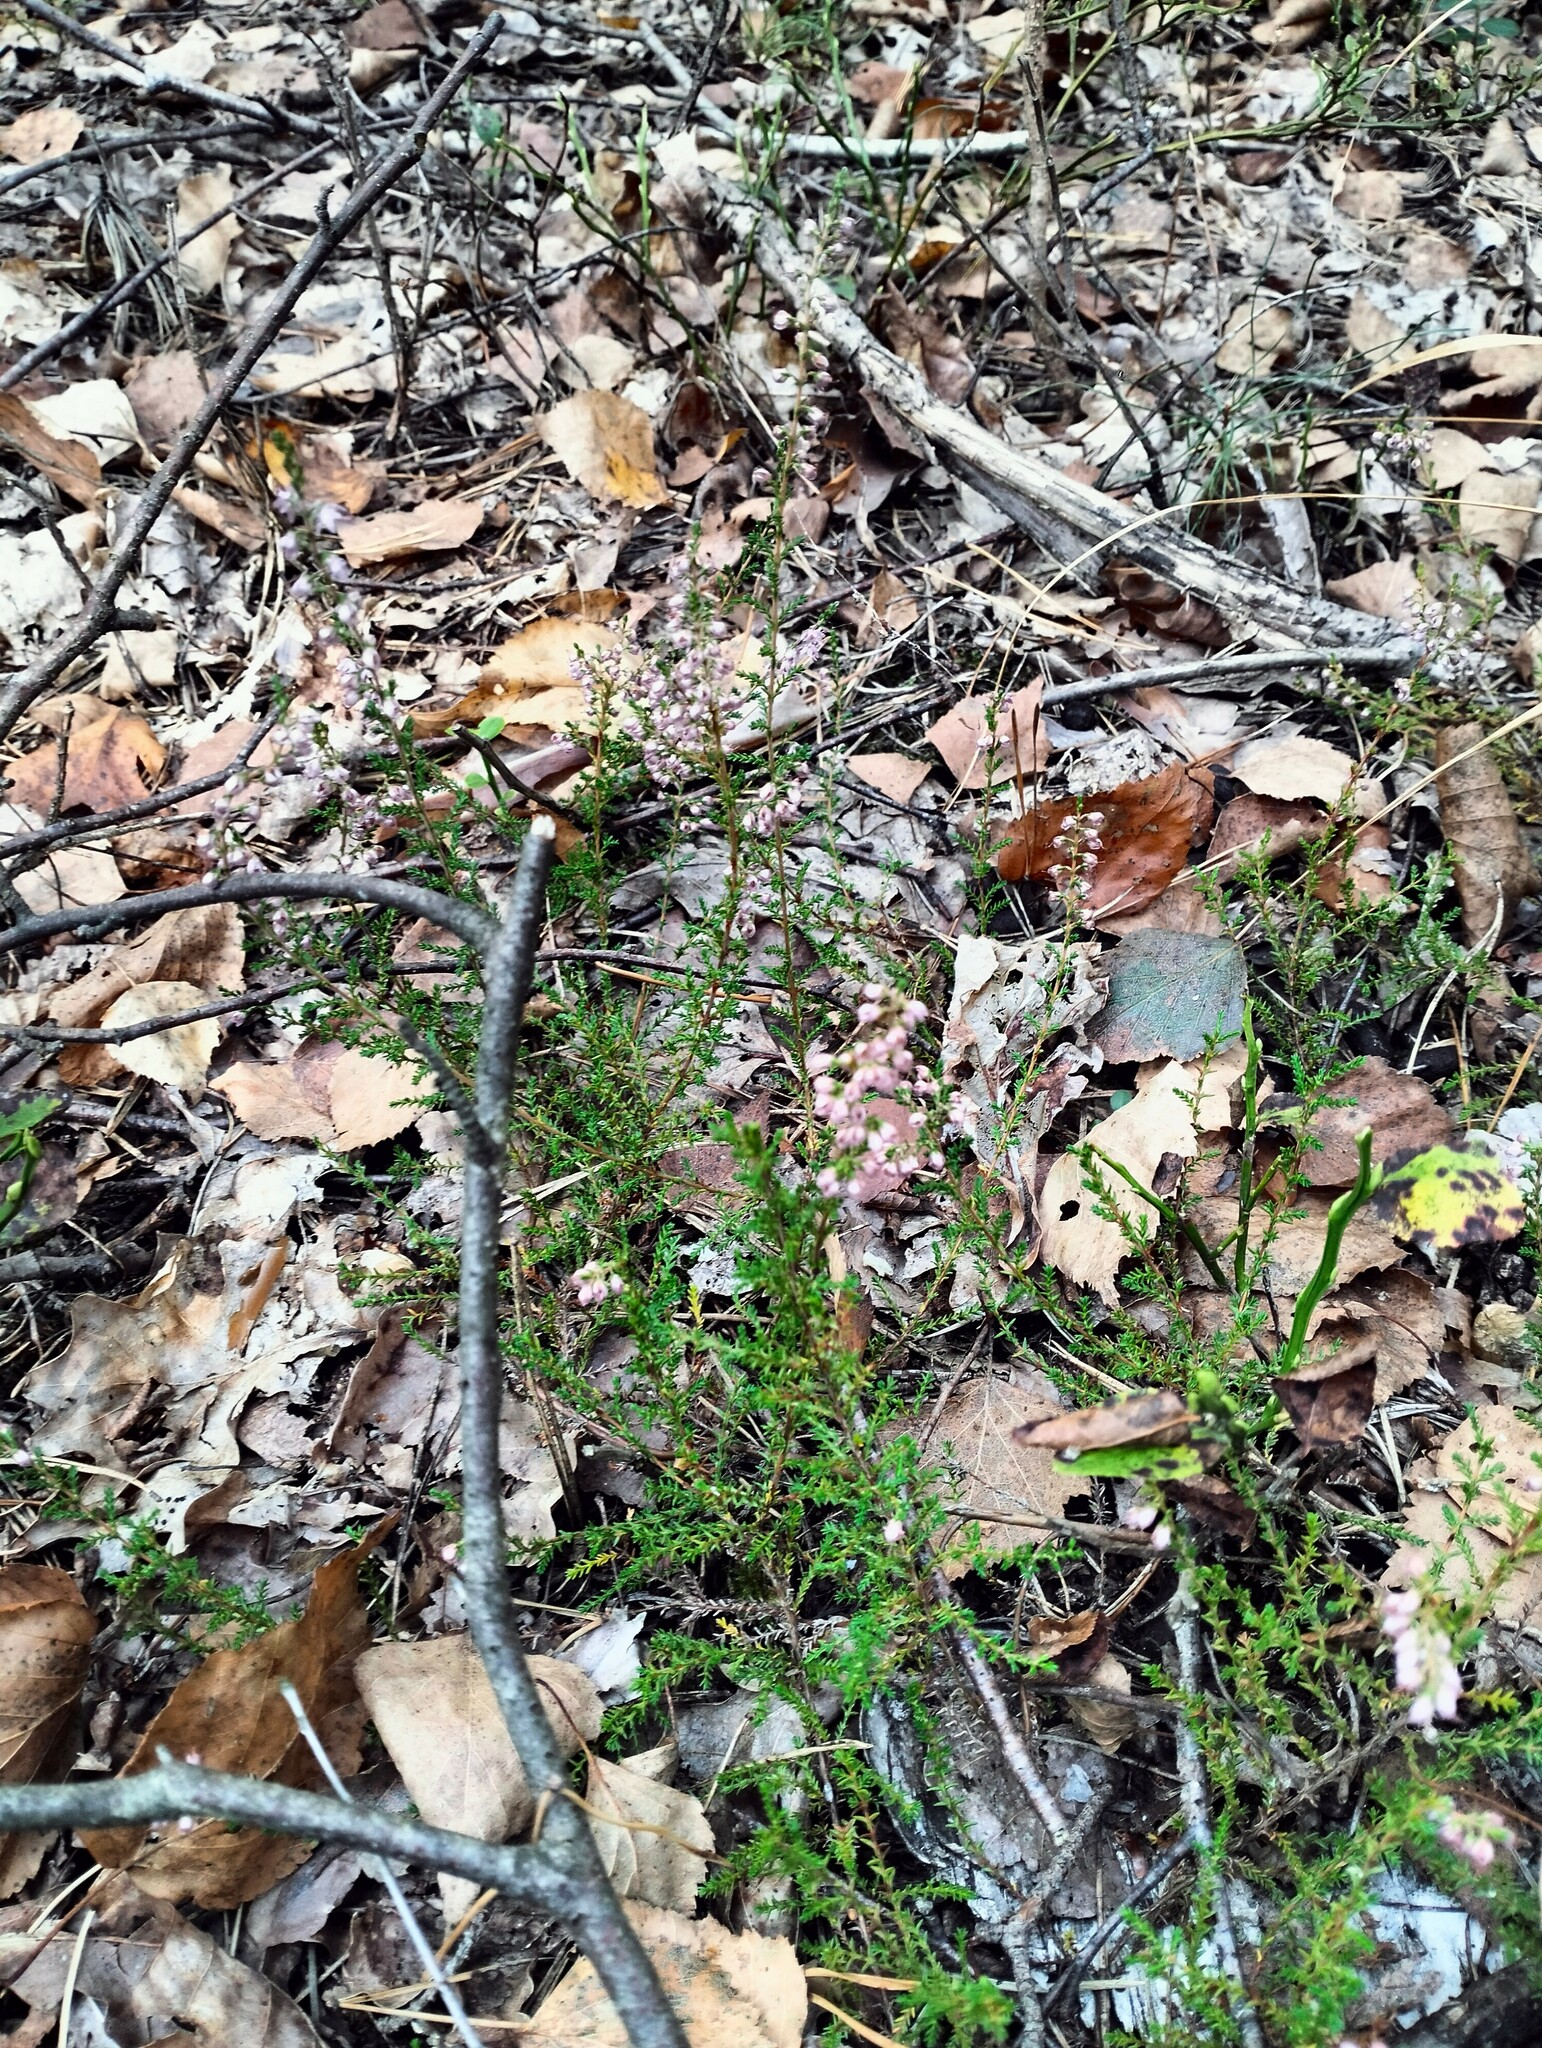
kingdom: Plantae
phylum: Tracheophyta
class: Magnoliopsida
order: Ericales
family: Ericaceae
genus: Calluna
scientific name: Calluna vulgaris
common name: Heather
